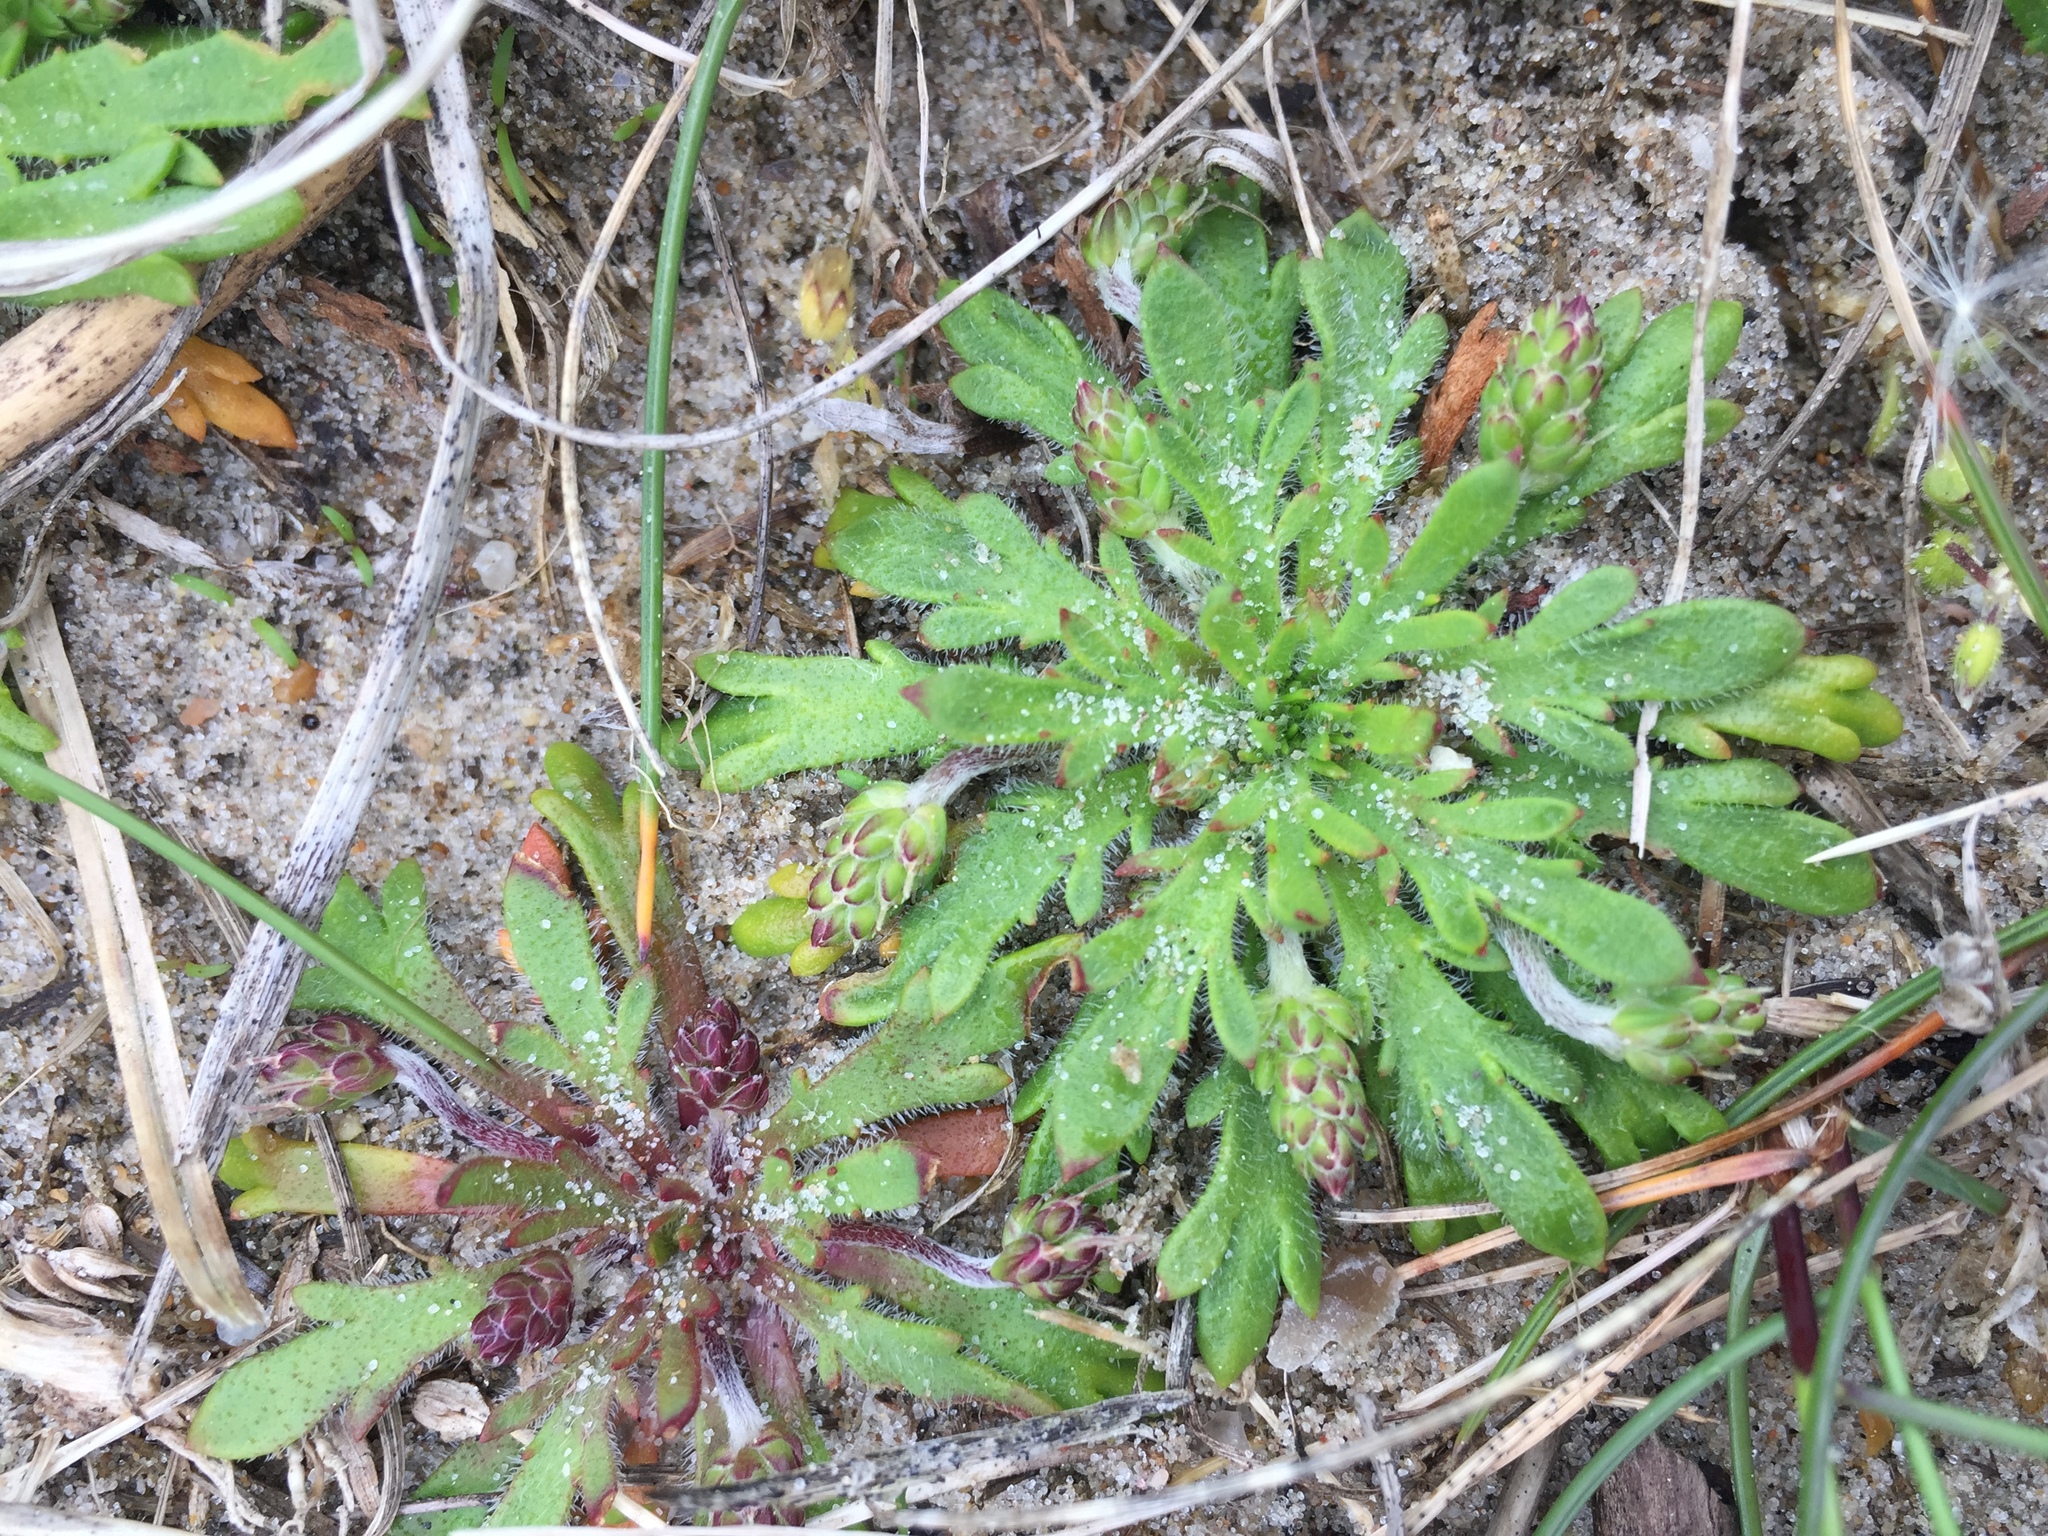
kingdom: Plantae
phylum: Tracheophyta
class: Magnoliopsida
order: Lamiales
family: Plantaginaceae
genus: Plantago
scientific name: Plantago coronopus
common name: Buck's-horn plantain
